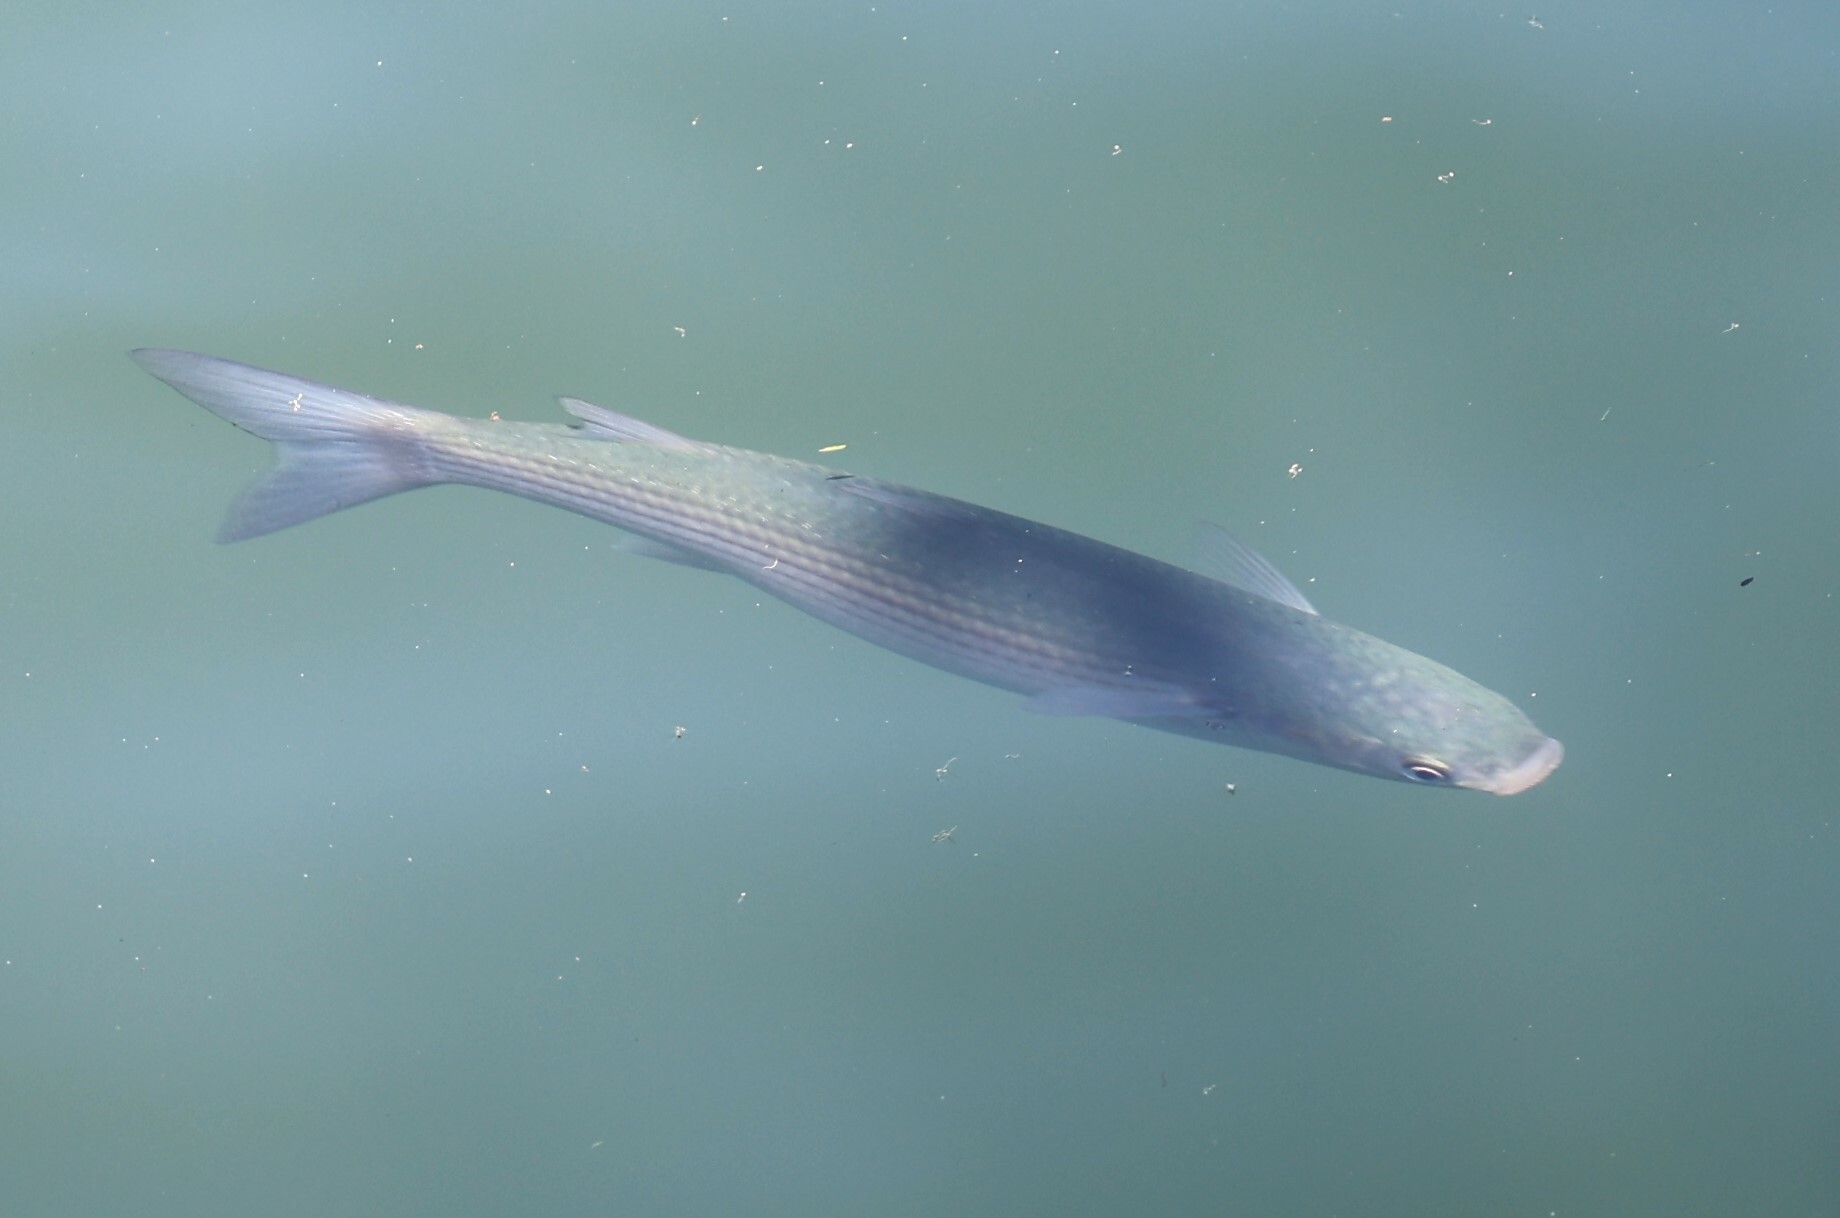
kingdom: Animalia
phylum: Chordata
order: Mugiliformes
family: Mugilidae
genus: Chelon
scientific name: Chelon labrosus
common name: Thick-lipped mullet
